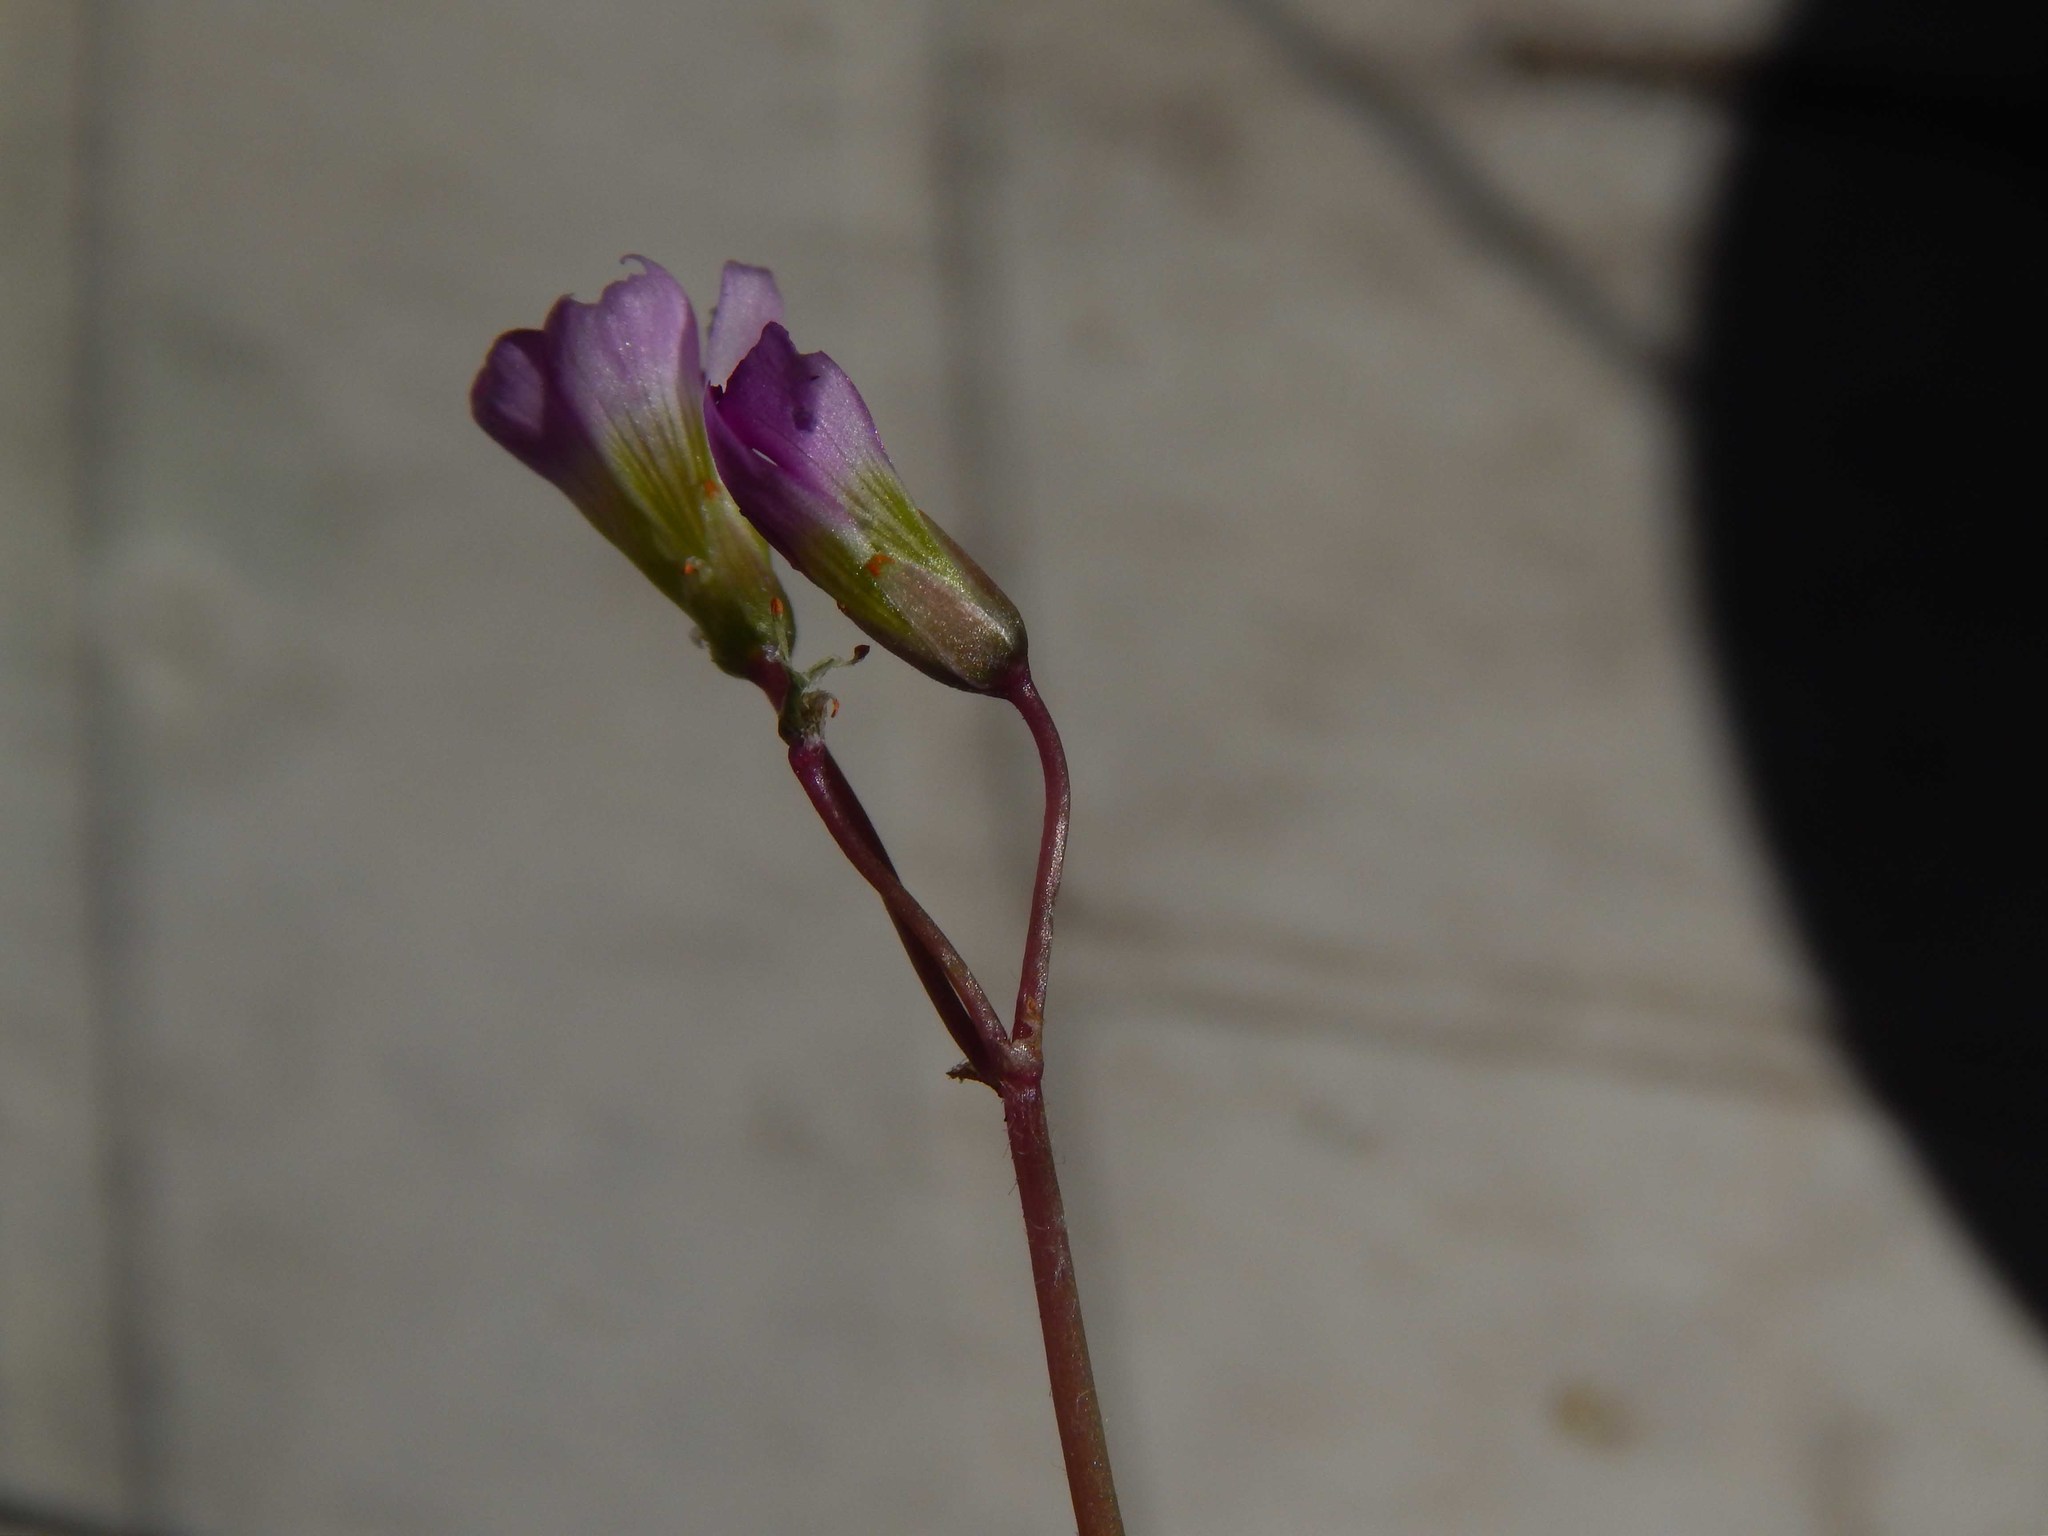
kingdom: Plantae
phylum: Tracheophyta
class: Magnoliopsida
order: Oxalidales
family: Oxalidaceae
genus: Oxalis
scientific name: Oxalis latifolia
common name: Garden pink-sorrel
